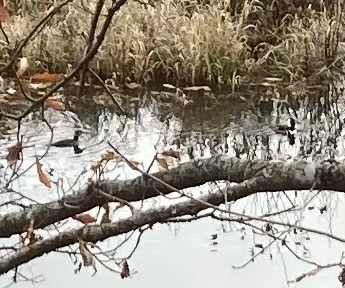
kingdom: Animalia
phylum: Chordata
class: Aves
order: Anseriformes
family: Anatidae
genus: Lophodytes
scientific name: Lophodytes cucullatus
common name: Hooded merganser
